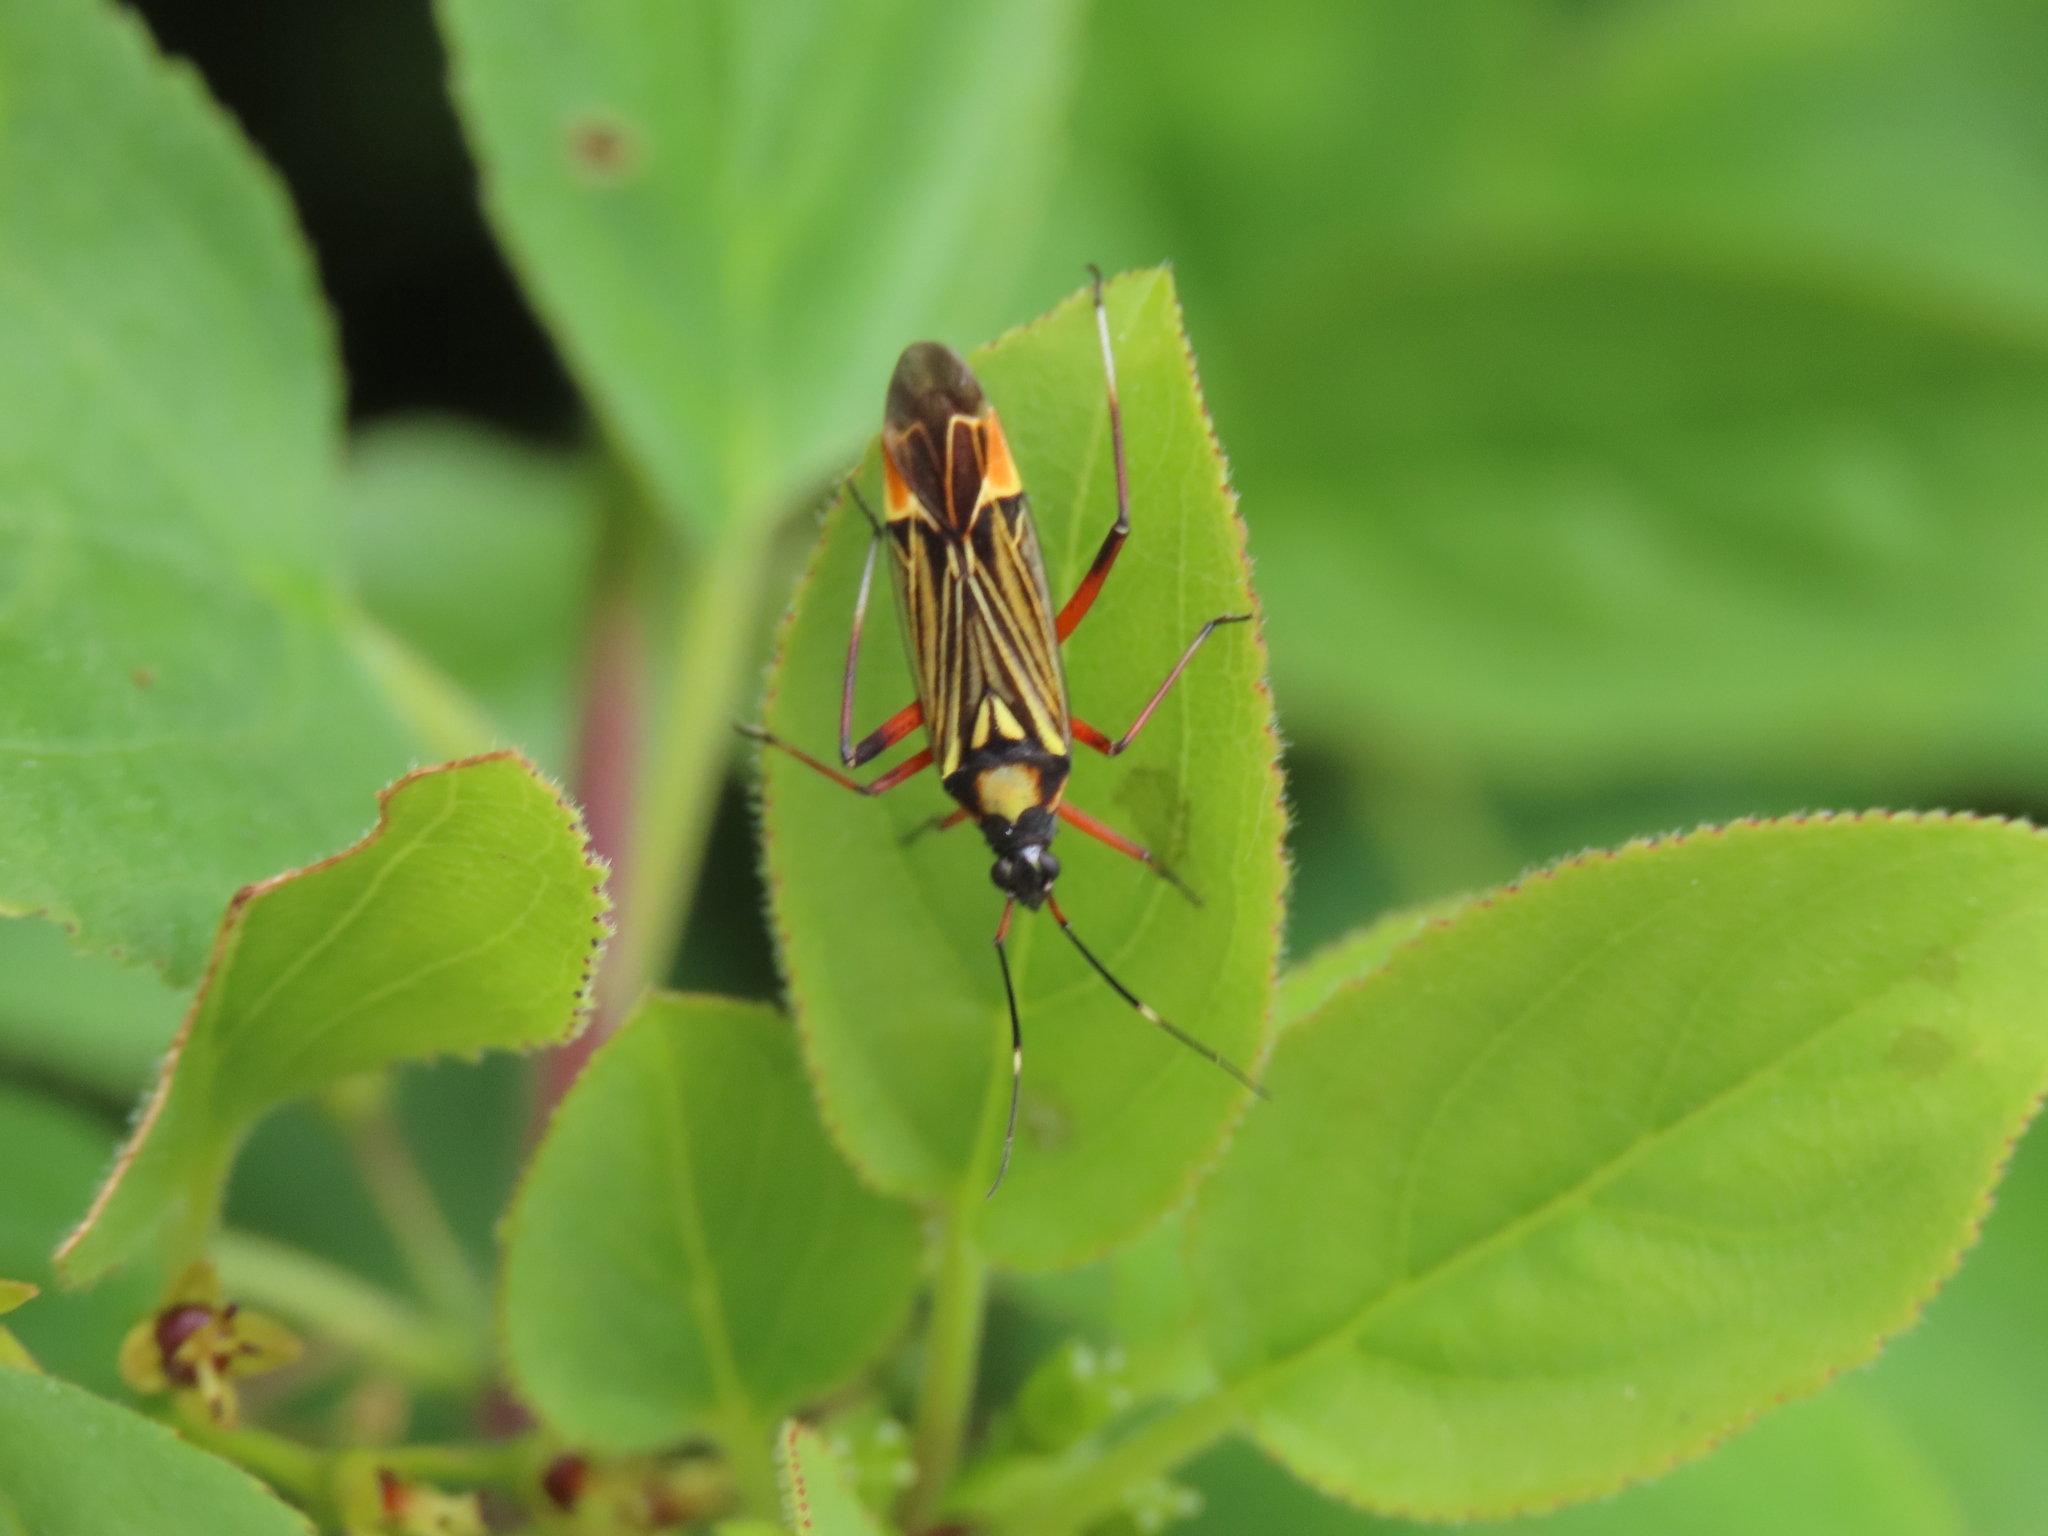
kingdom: Animalia
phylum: Arthropoda
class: Insecta
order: Hemiptera
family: Miridae
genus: Miris
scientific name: Miris striatus
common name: Fine streaked bugkin
